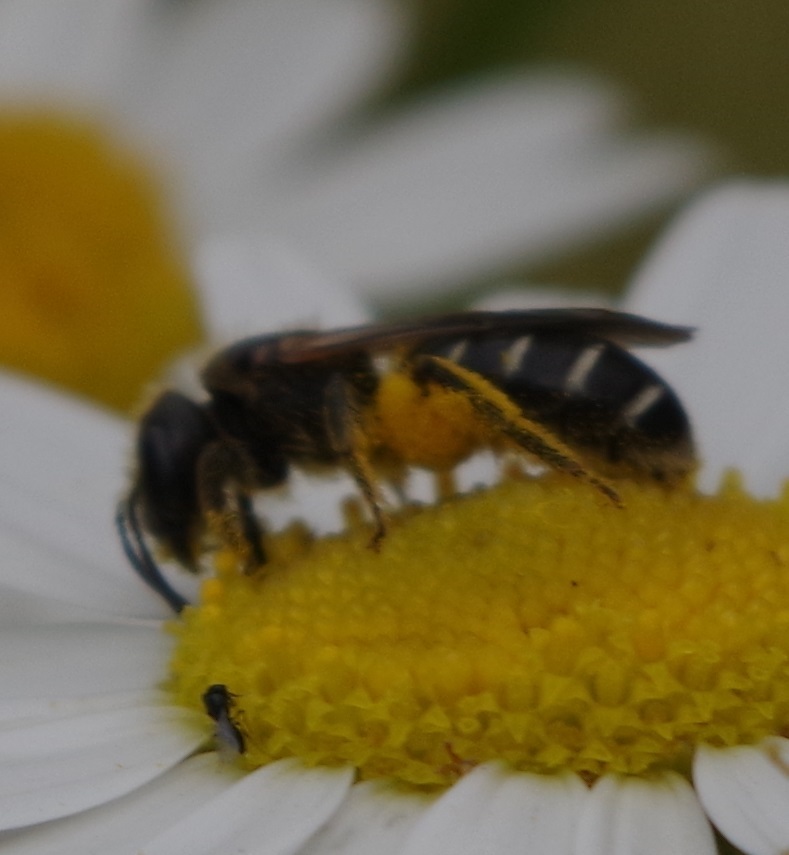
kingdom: Animalia
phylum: Arthropoda
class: Insecta
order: Hymenoptera
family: Halictidae
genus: Halictus
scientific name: Halictus maculatus
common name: Box-heades furrow bee
